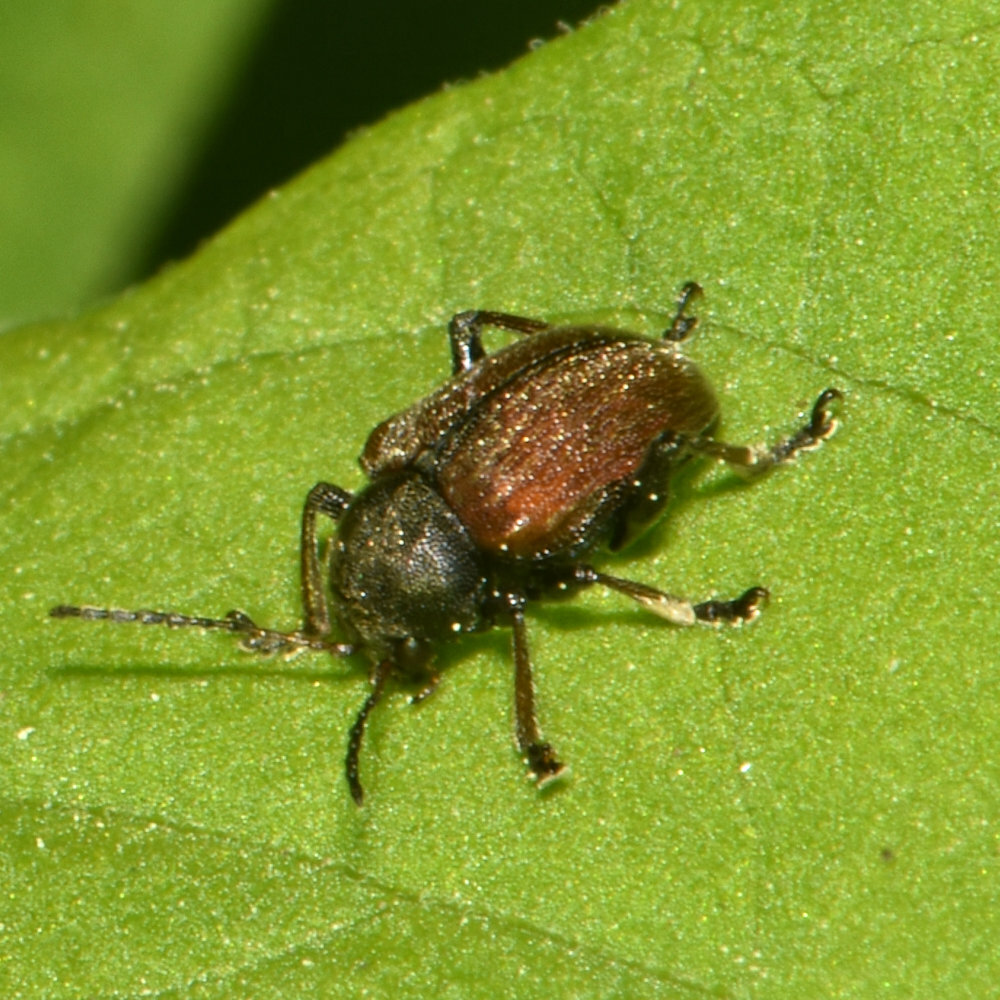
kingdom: Animalia
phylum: Arthropoda
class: Insecta
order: Coleoptera
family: Chrysomelidae
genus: Bromius
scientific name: Bromius obscurus
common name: Western grape rootworm
